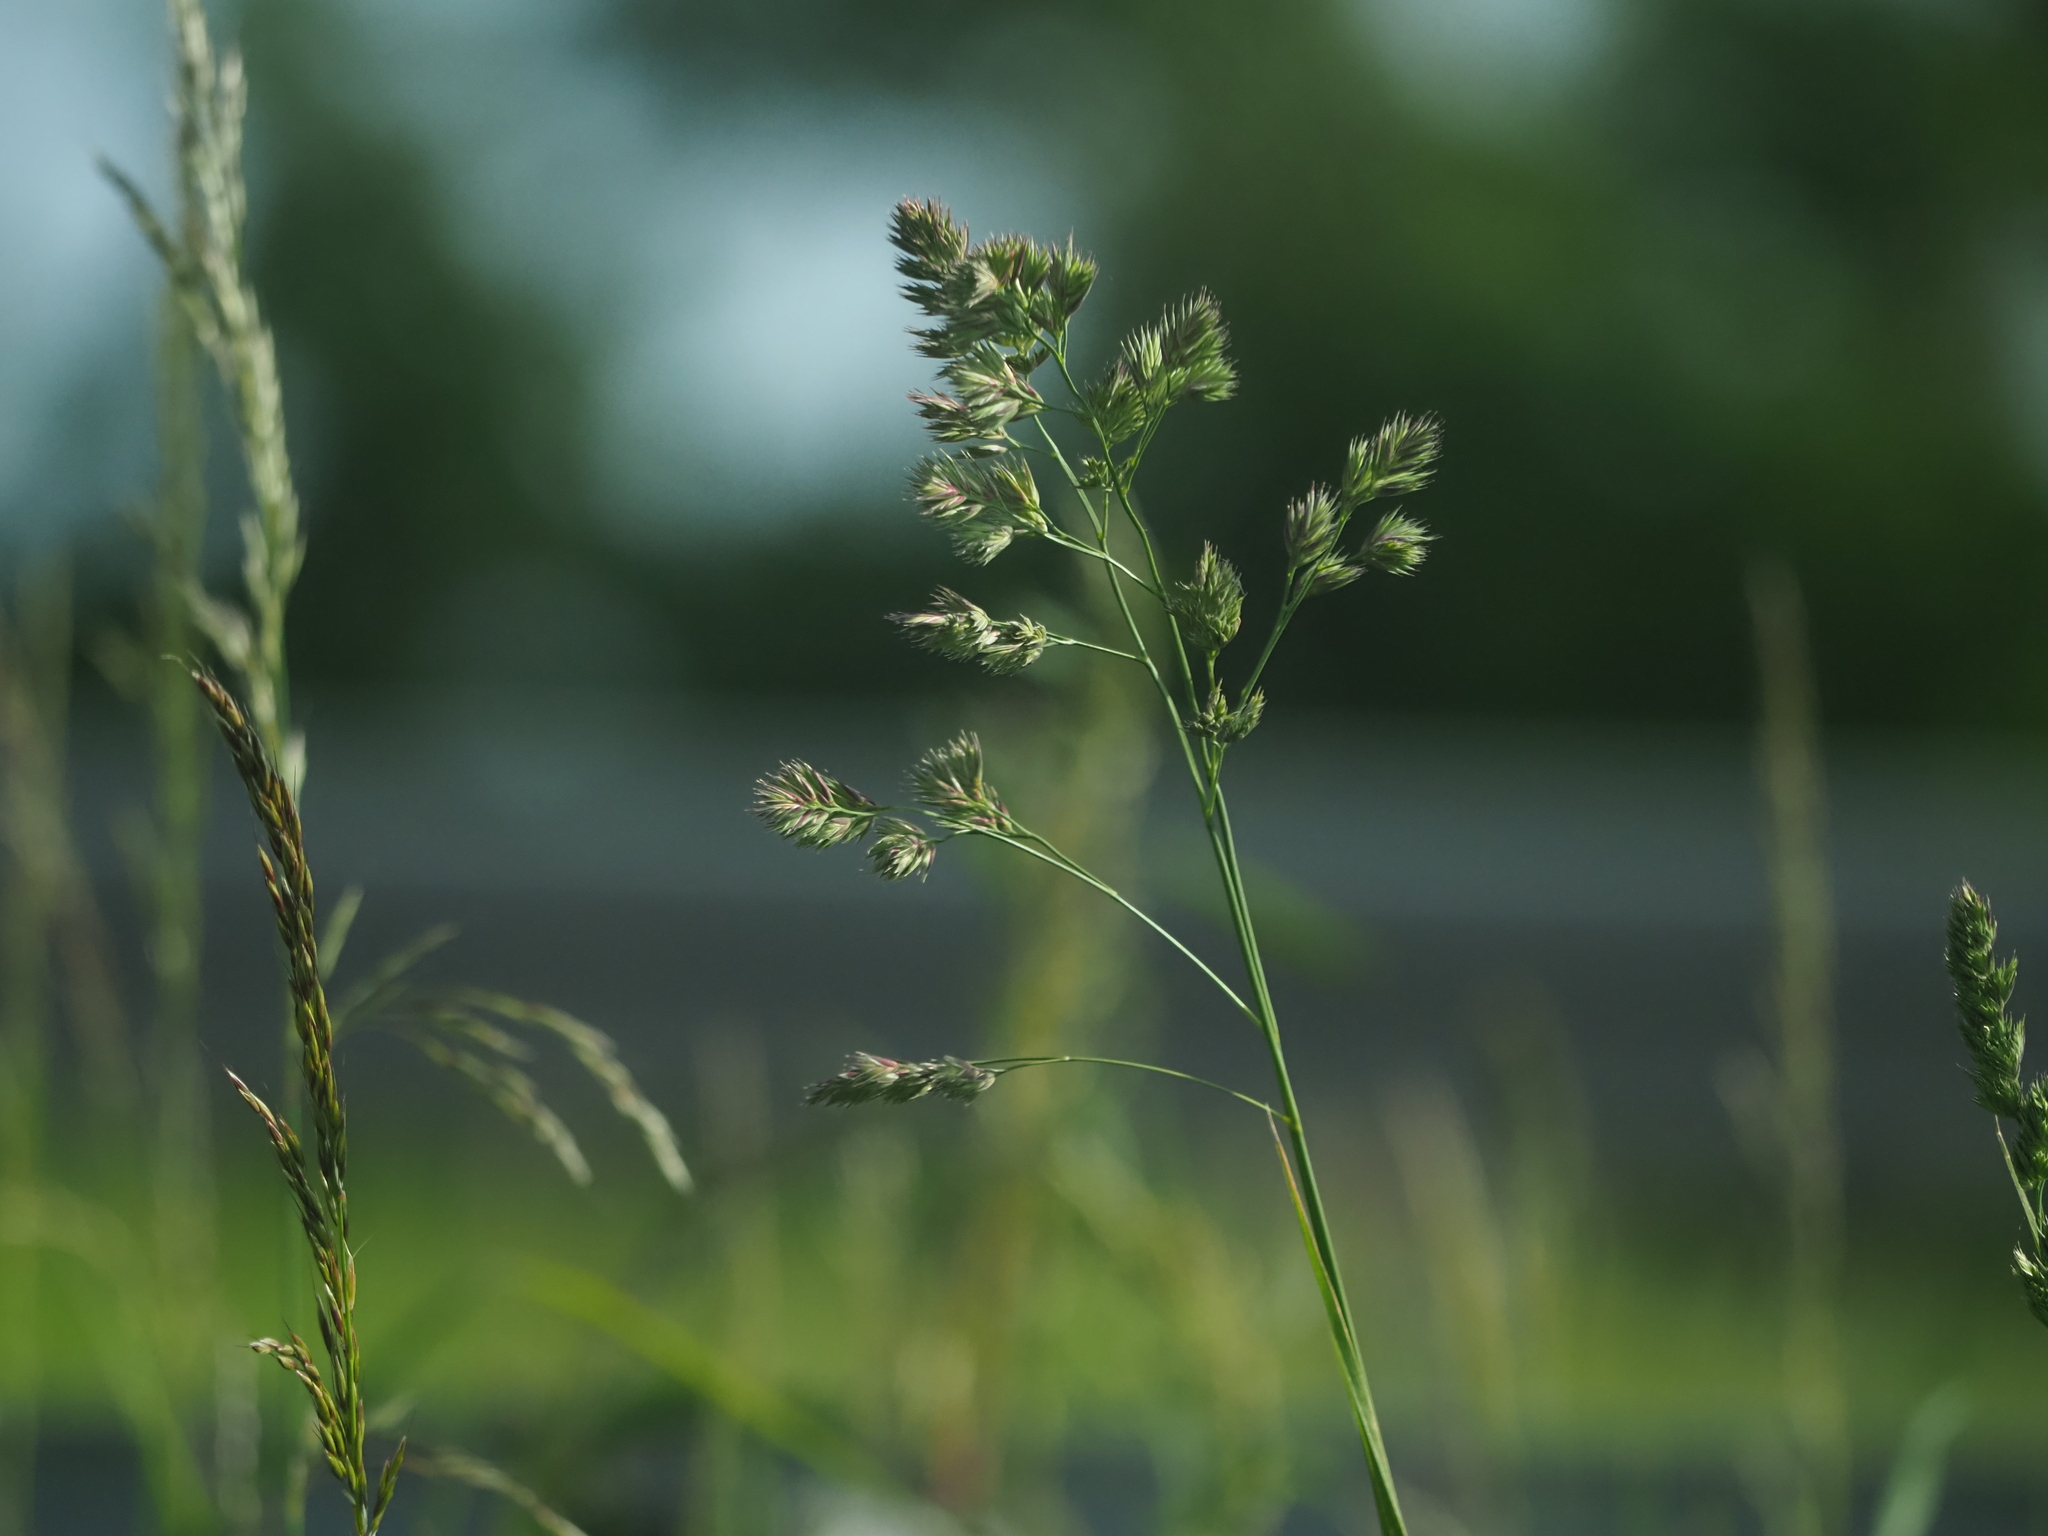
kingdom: Plantae
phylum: Tracheophyta
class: Liliopsida
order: Poales
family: Poaceae
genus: Dactylis
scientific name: Dactylis glomerata
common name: Orchardgrass
